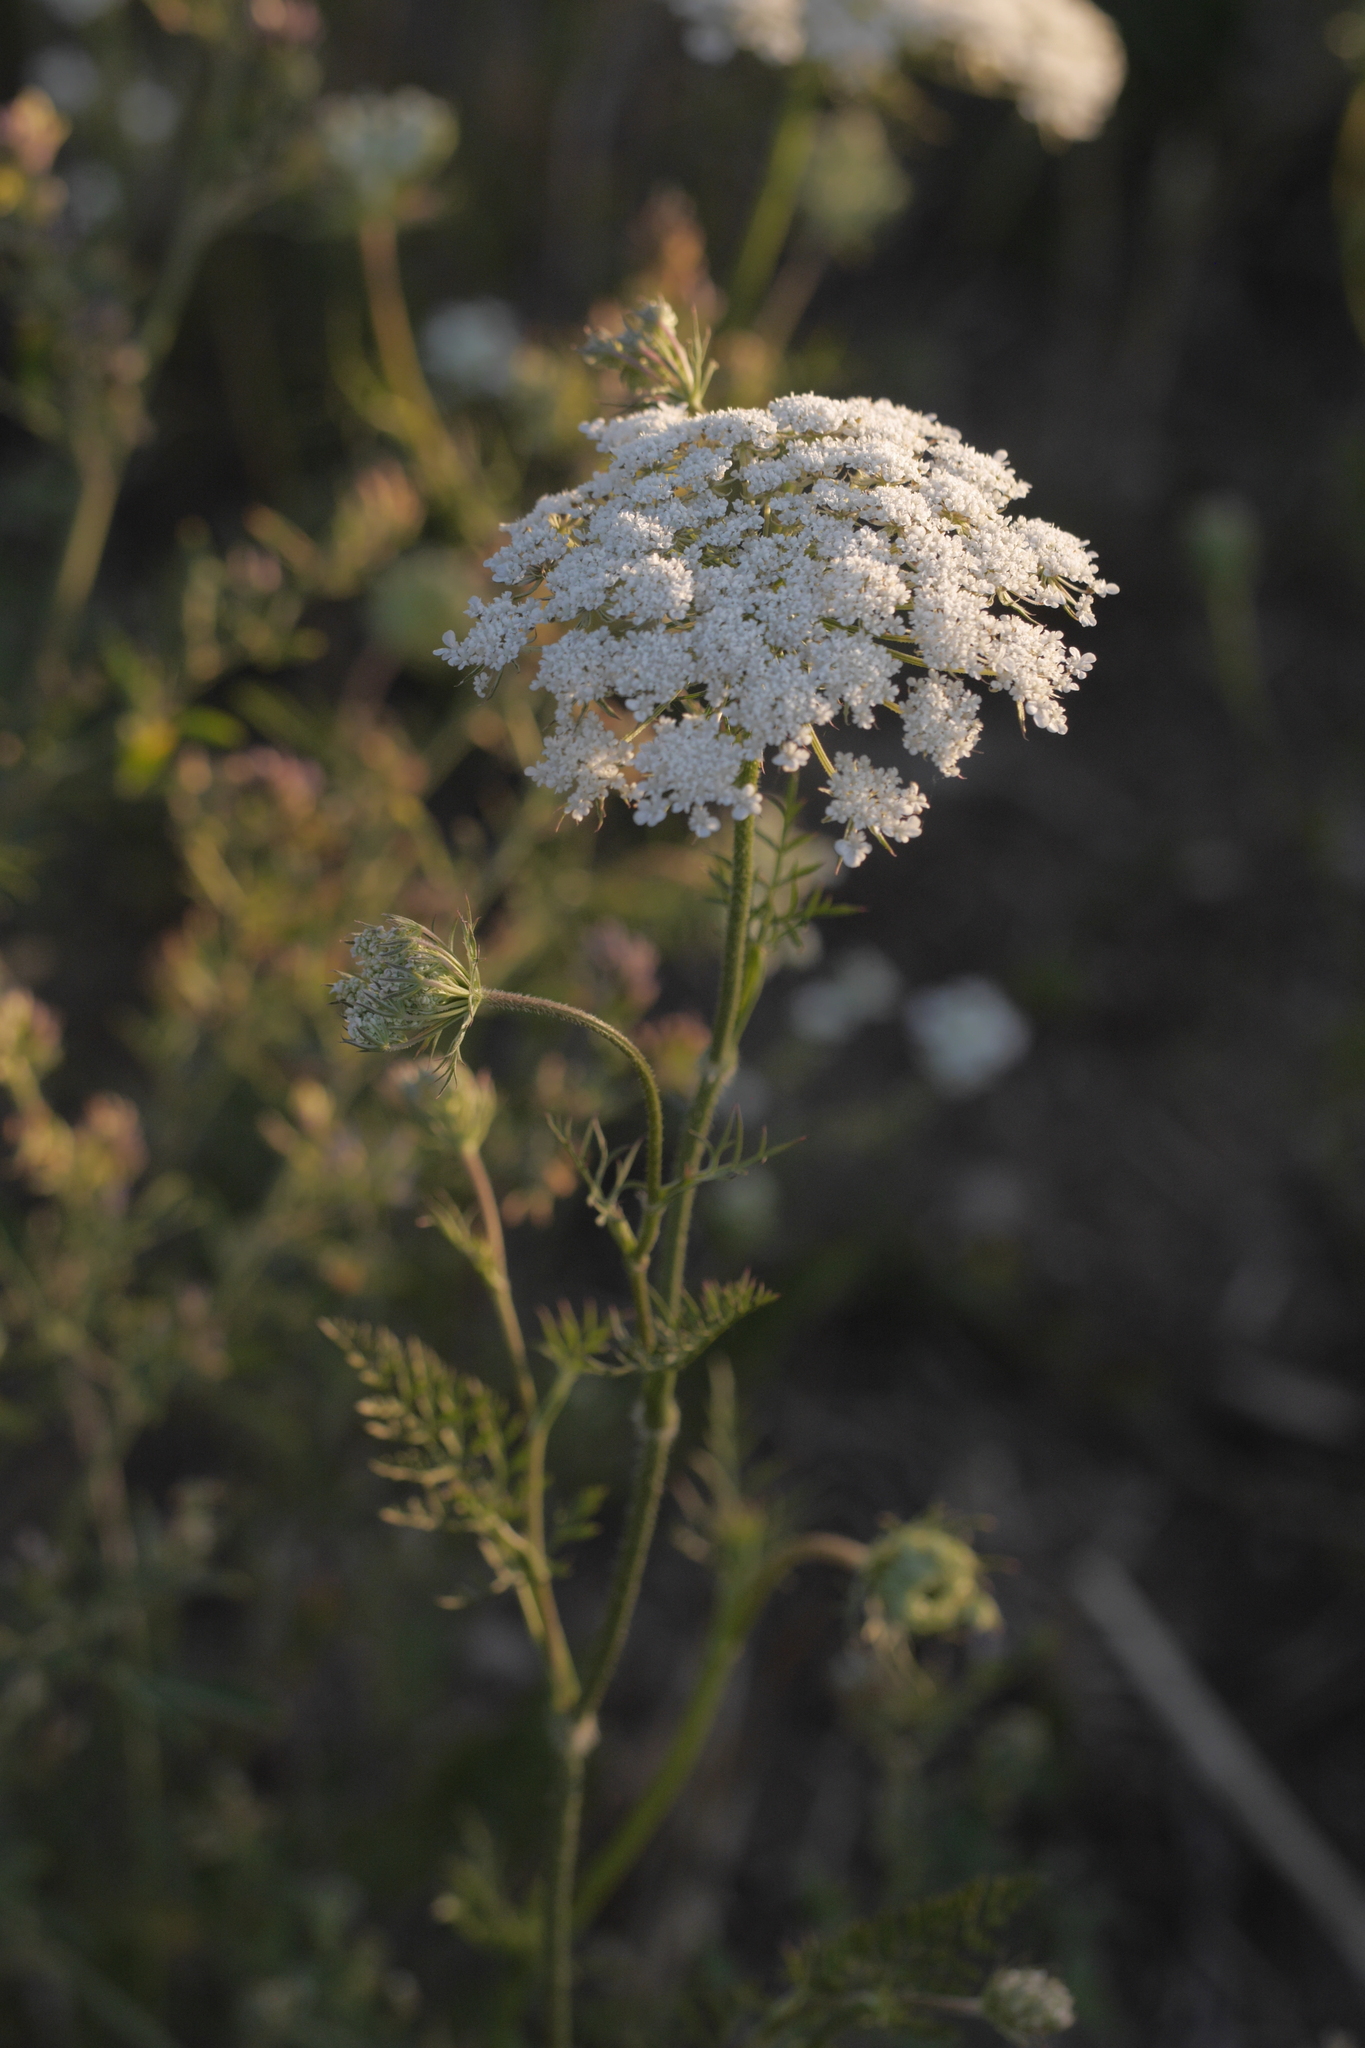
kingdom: Plantae
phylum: Tracheophyta
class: Magnoliopsida
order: Apiales
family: Apiaceae
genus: Daucus
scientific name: Daucus carota
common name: Wild carrot
